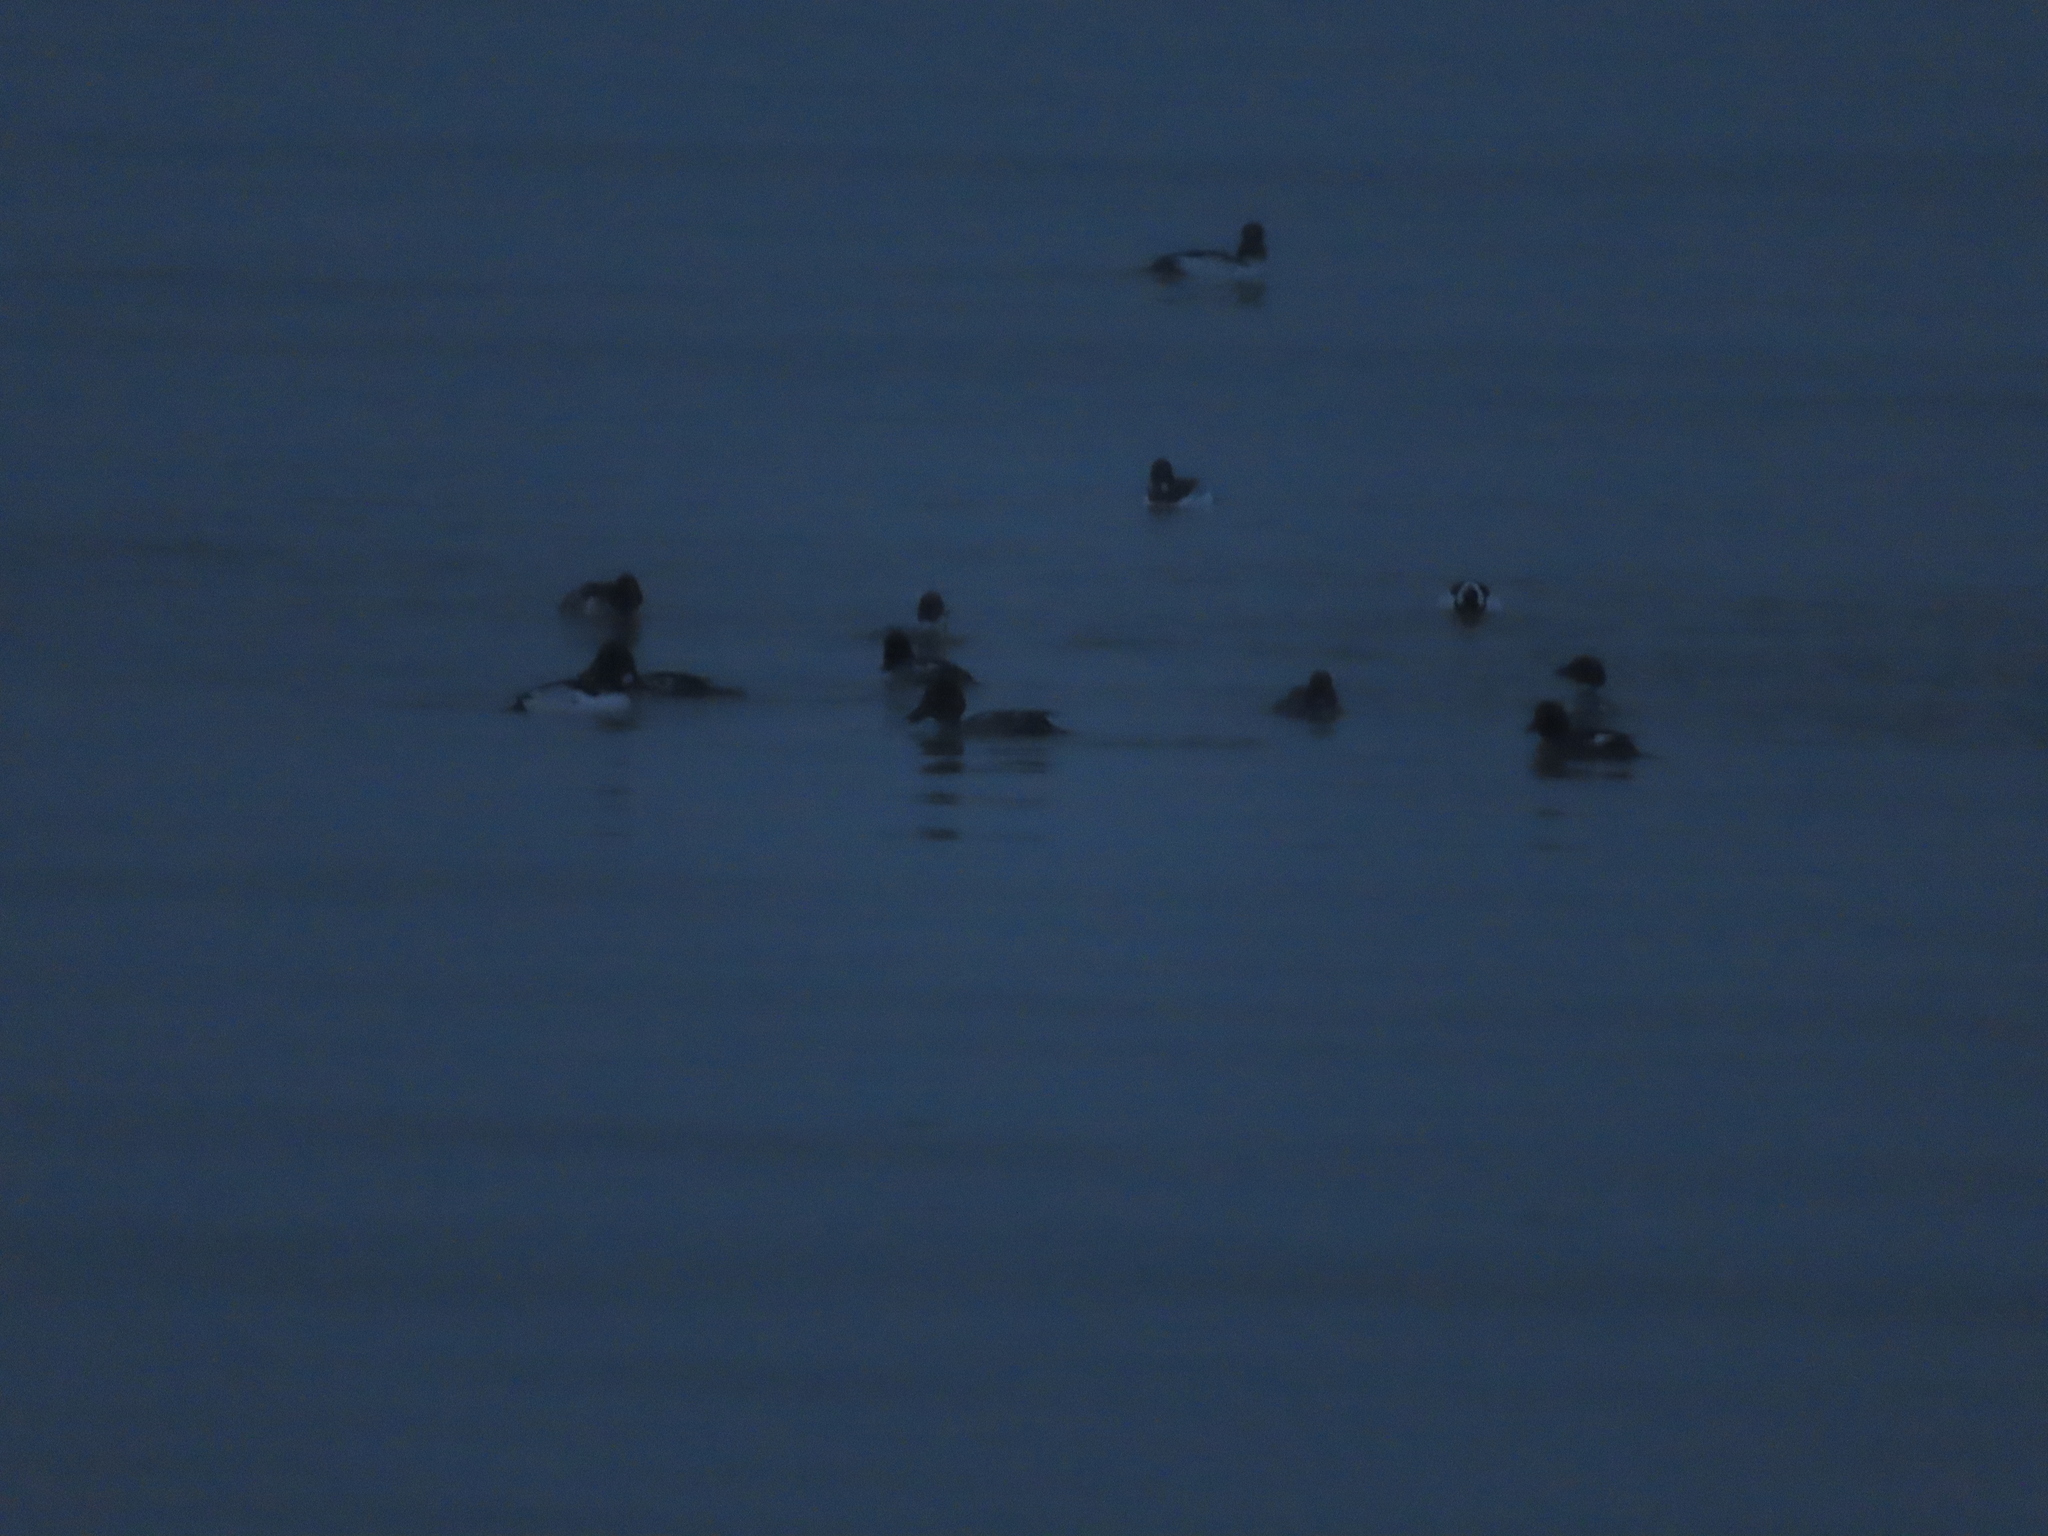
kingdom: Animalia
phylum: Chordata
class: Aves
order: Anseriformes
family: Anatidae
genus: Bucephala
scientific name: Bucephala clangula
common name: Common goldeneye
